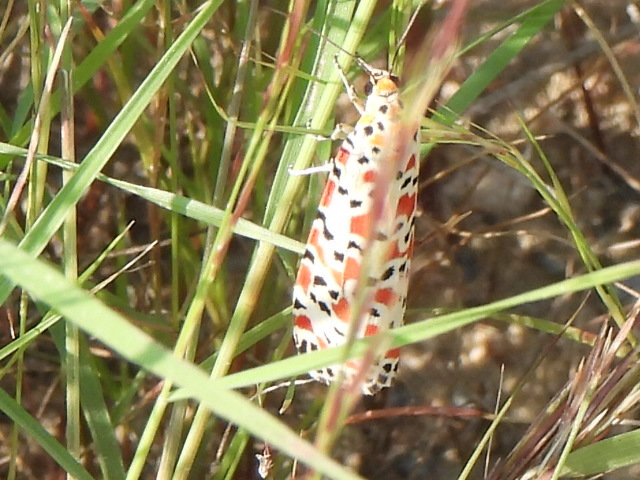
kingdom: Animalia
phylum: Arthropoda
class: Insecta
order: Lepidoptera
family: Erebidae
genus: Utetheisa
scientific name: Utetheisa pulchella
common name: Crimson speckled
